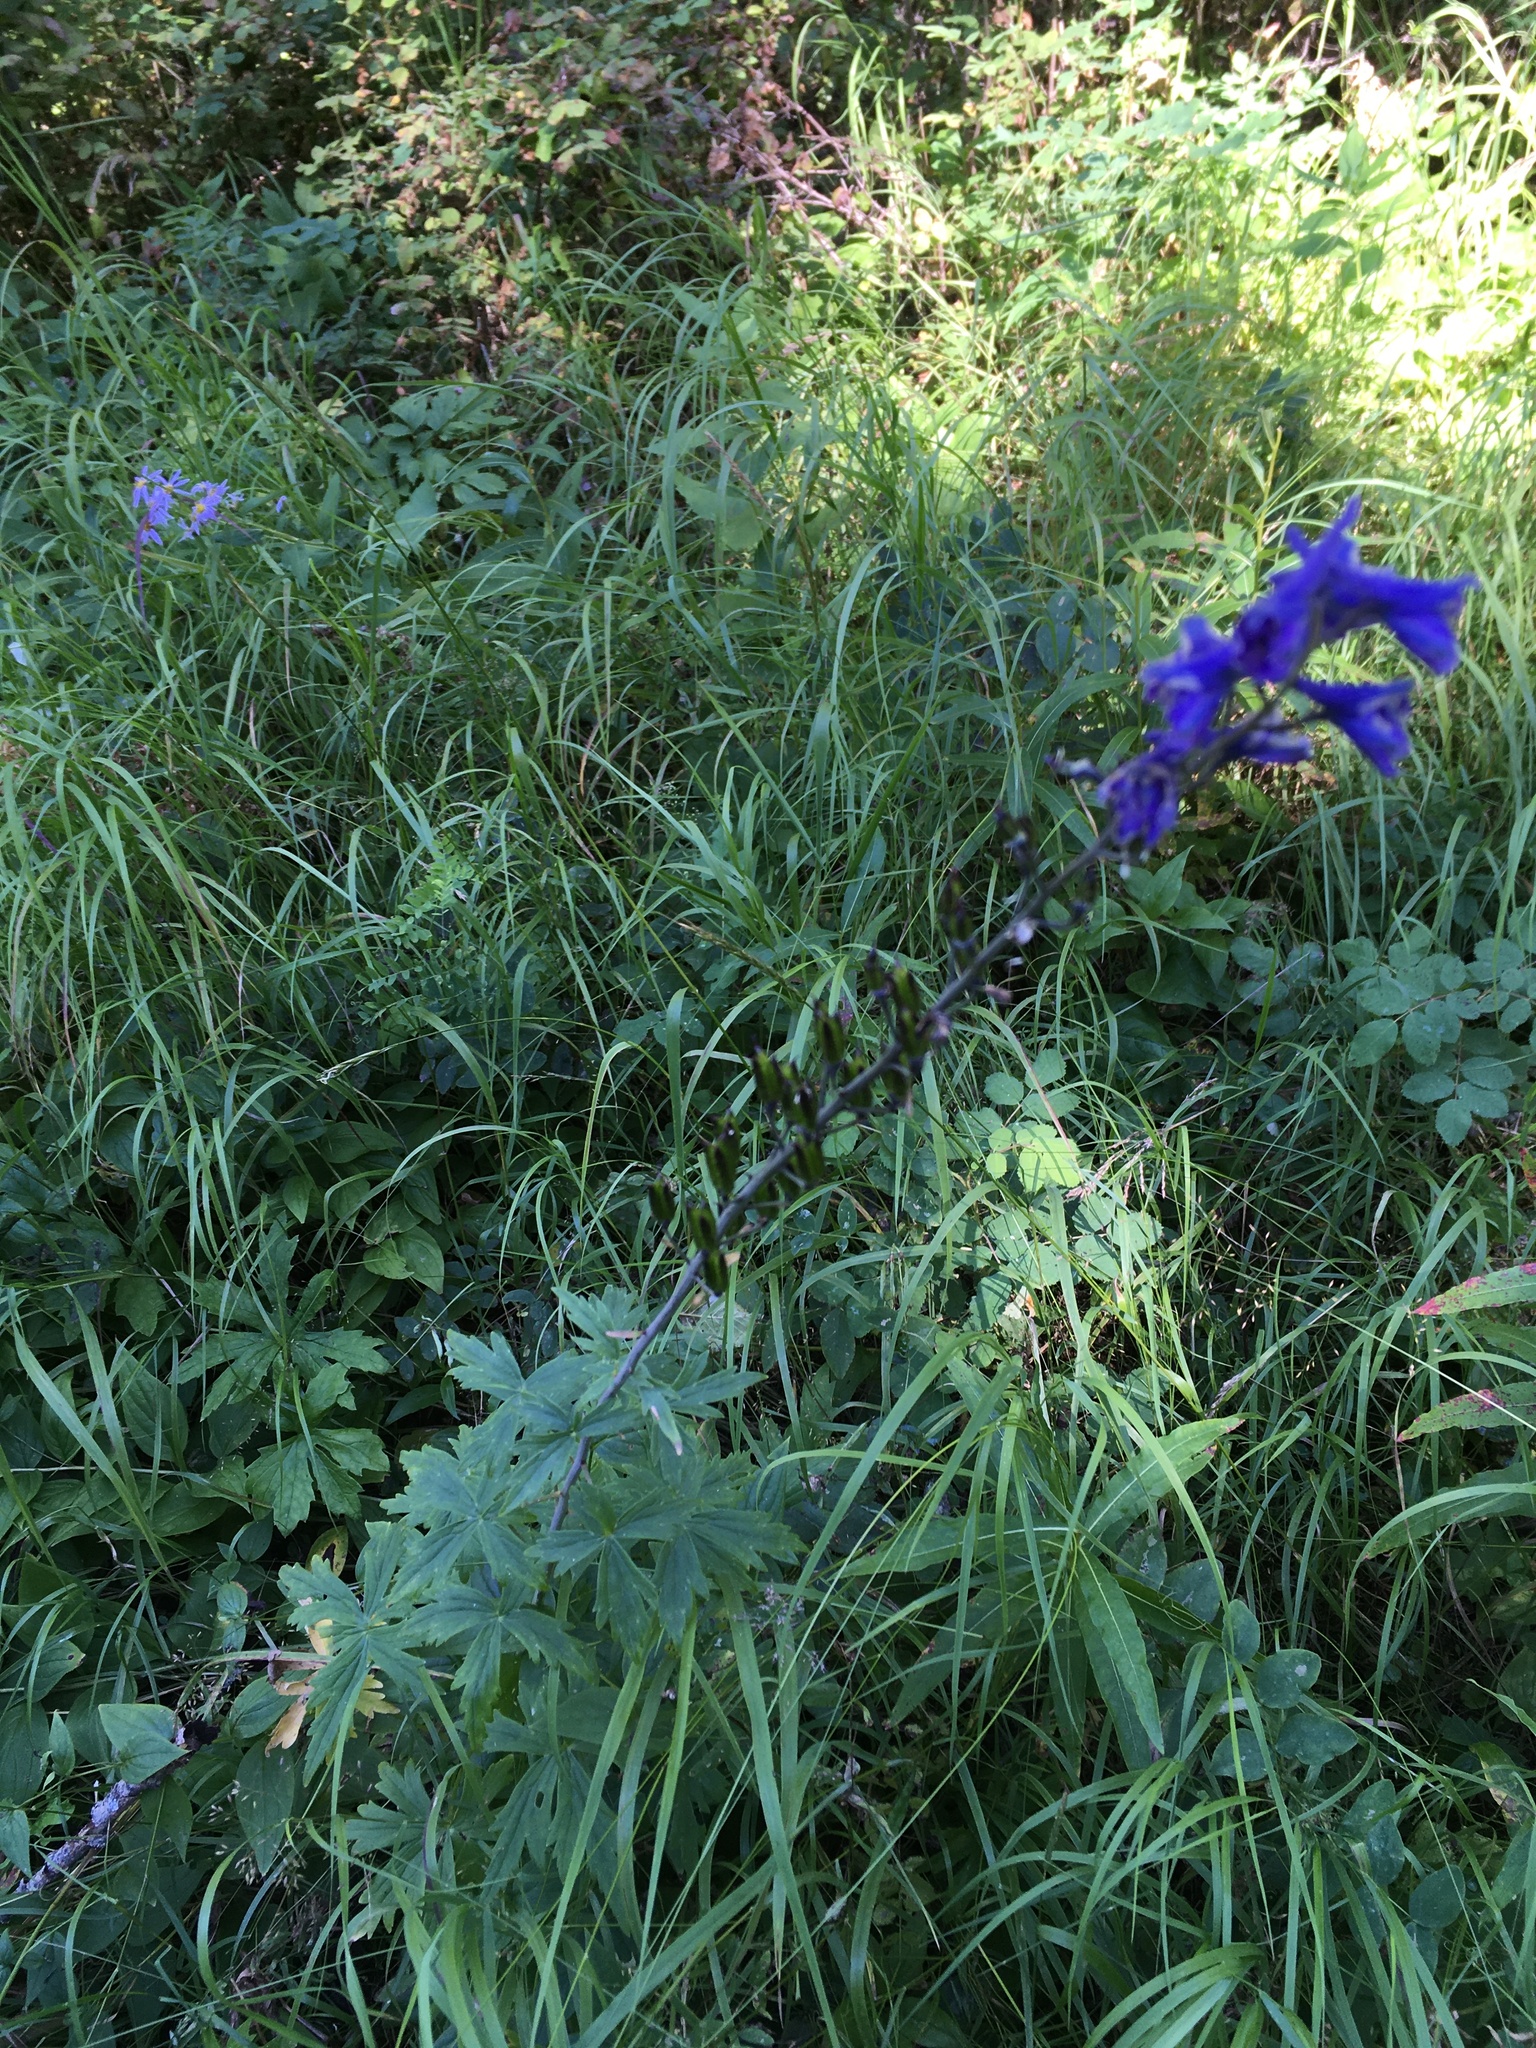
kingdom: Plantae
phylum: Tracheophyta
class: Magnoliopsida
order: Ranunculales
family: Ranunculaceae
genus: Delphinium
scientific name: Delphinium glaucum
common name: Brown's larkspur
